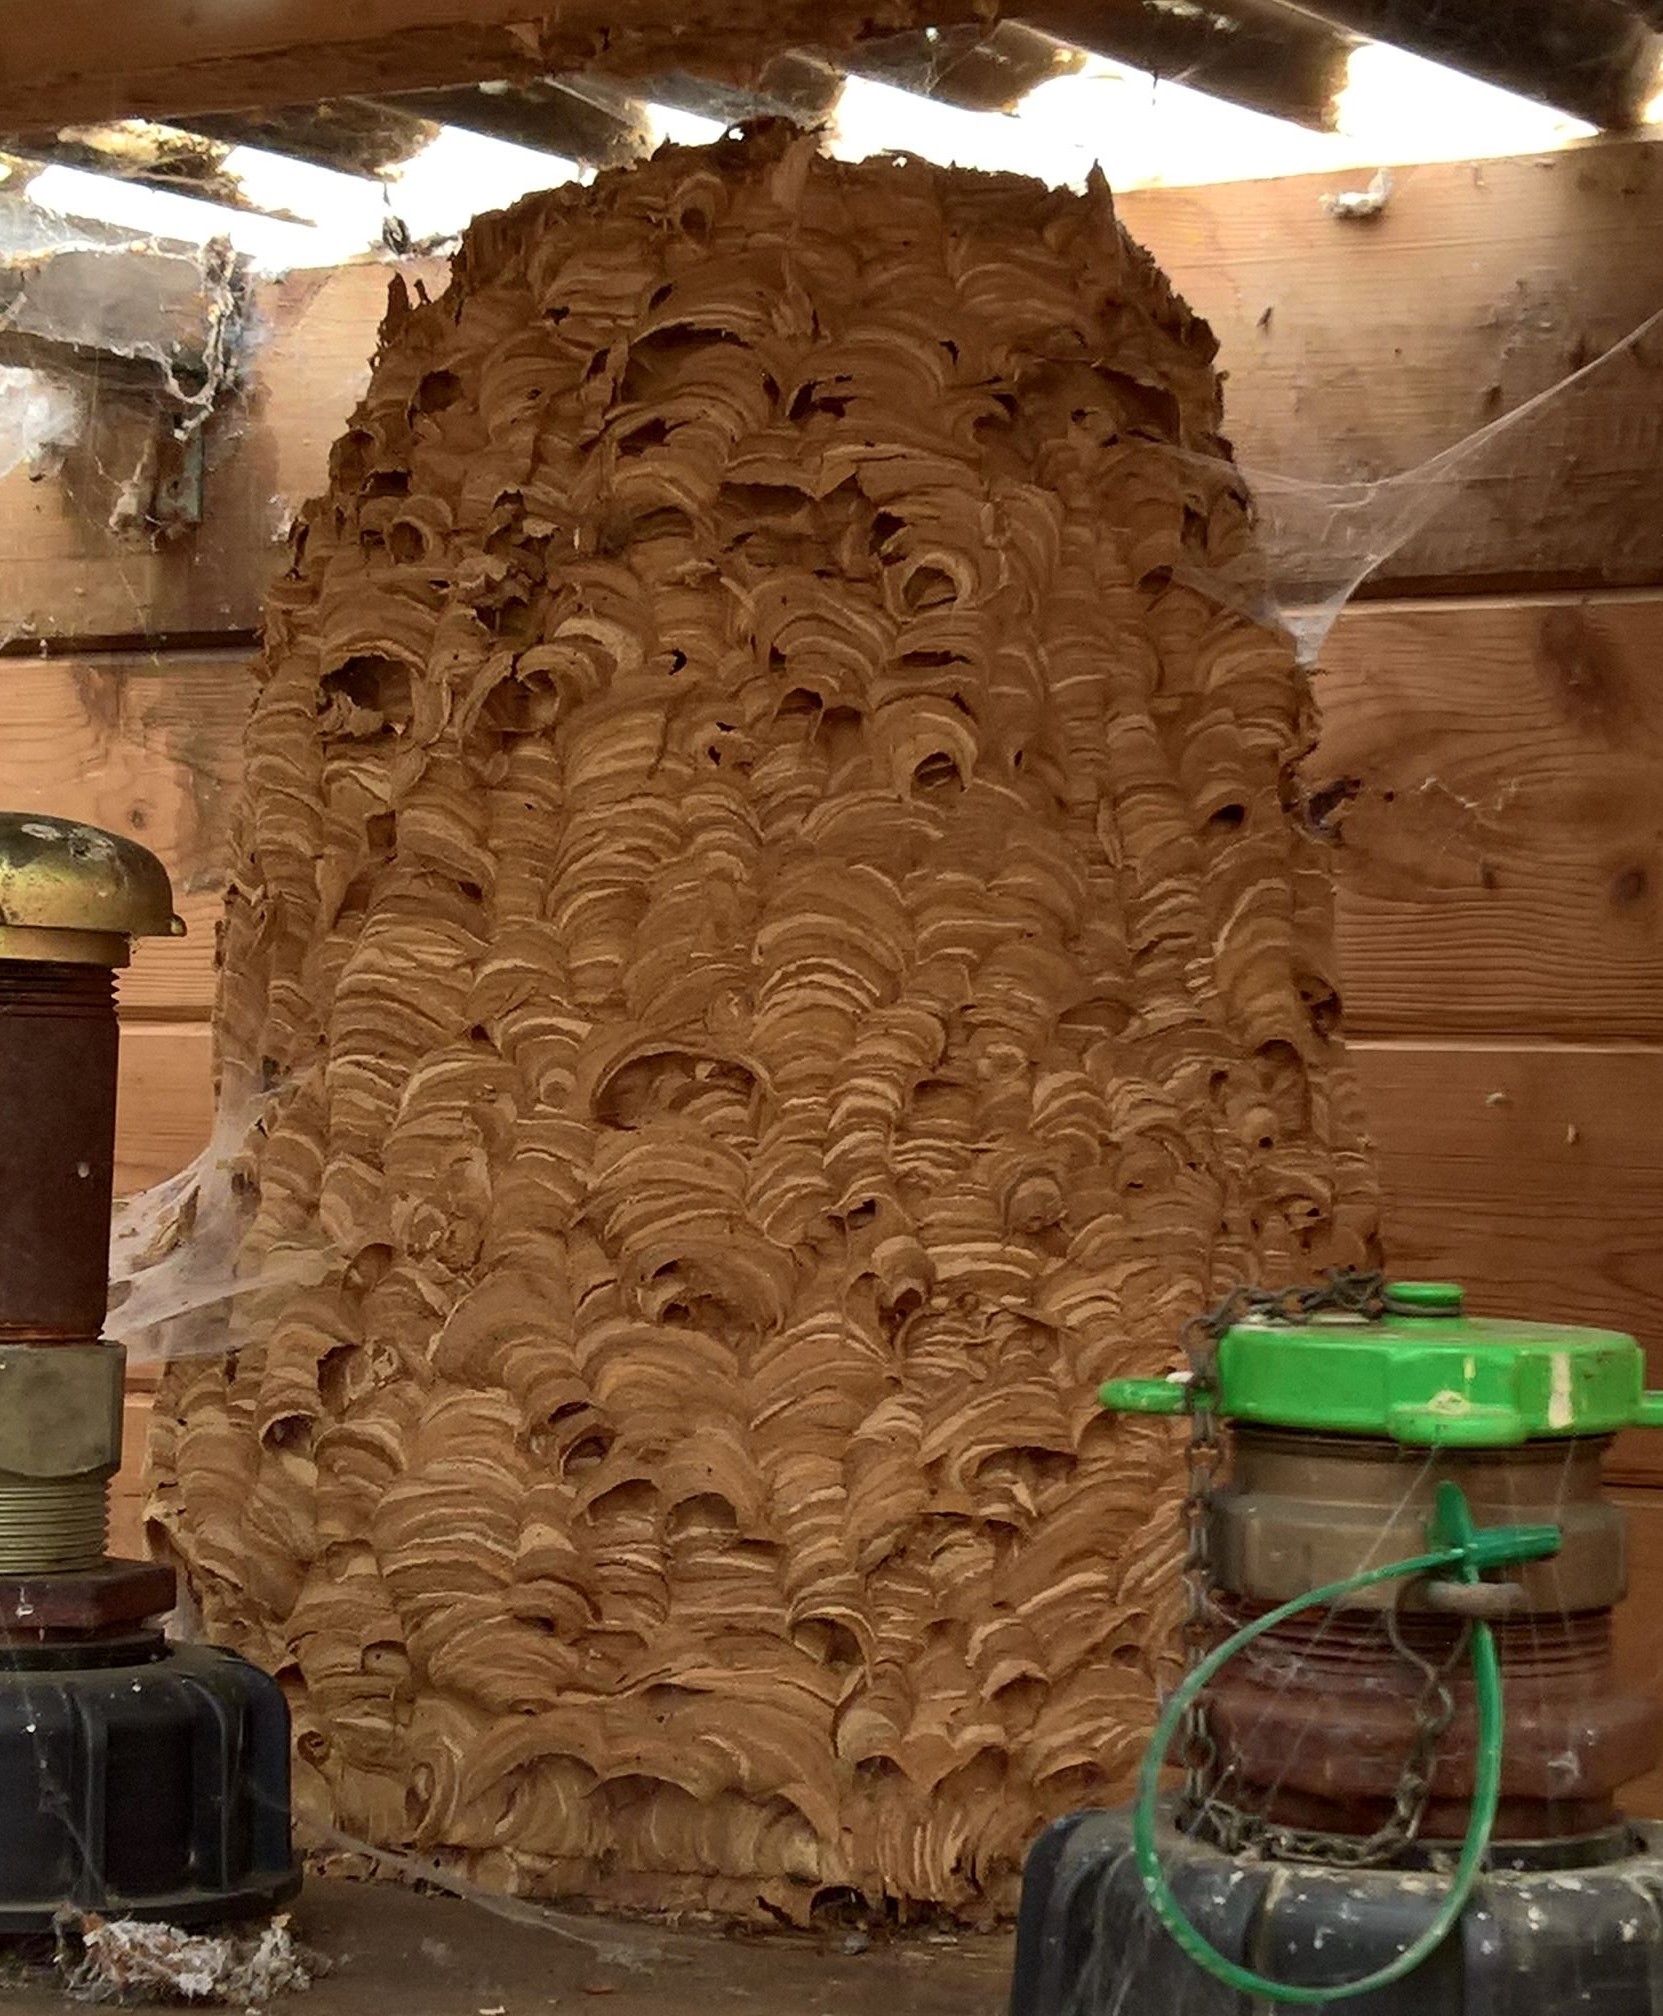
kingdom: Animalia
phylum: Arthropoda
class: Insecta
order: Hymenoptera
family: Vespidae
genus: Vespa
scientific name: Vespa crabro
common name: Hornet
